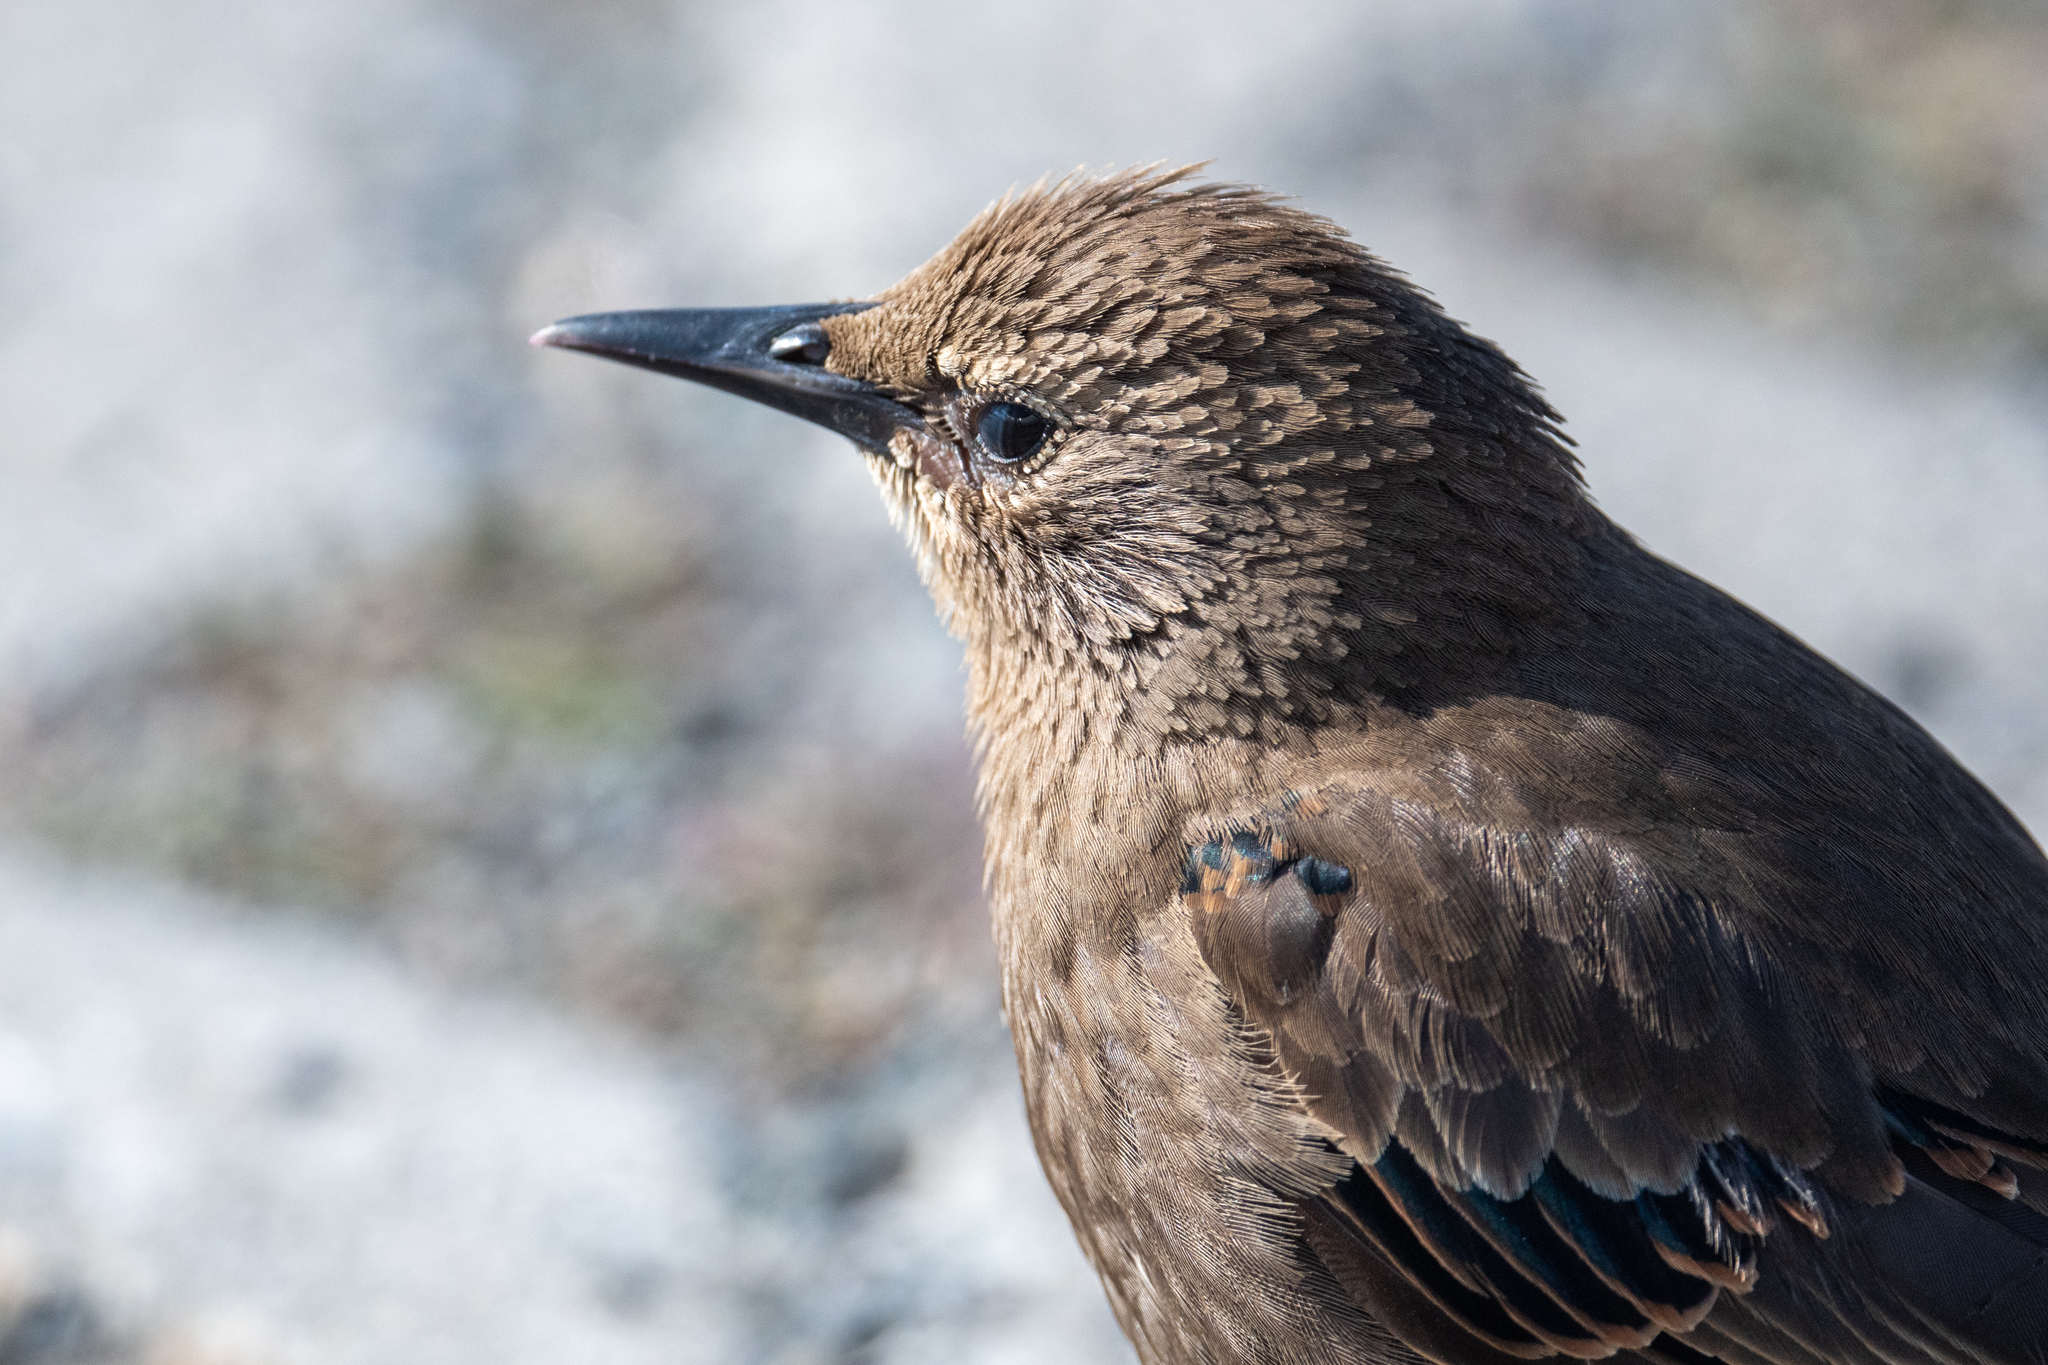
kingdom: Animalia
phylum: Chordata
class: Aves
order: Passeriformes
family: Sturnidae
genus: Sturnus
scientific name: Sturnus vulgaris
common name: Common starling
